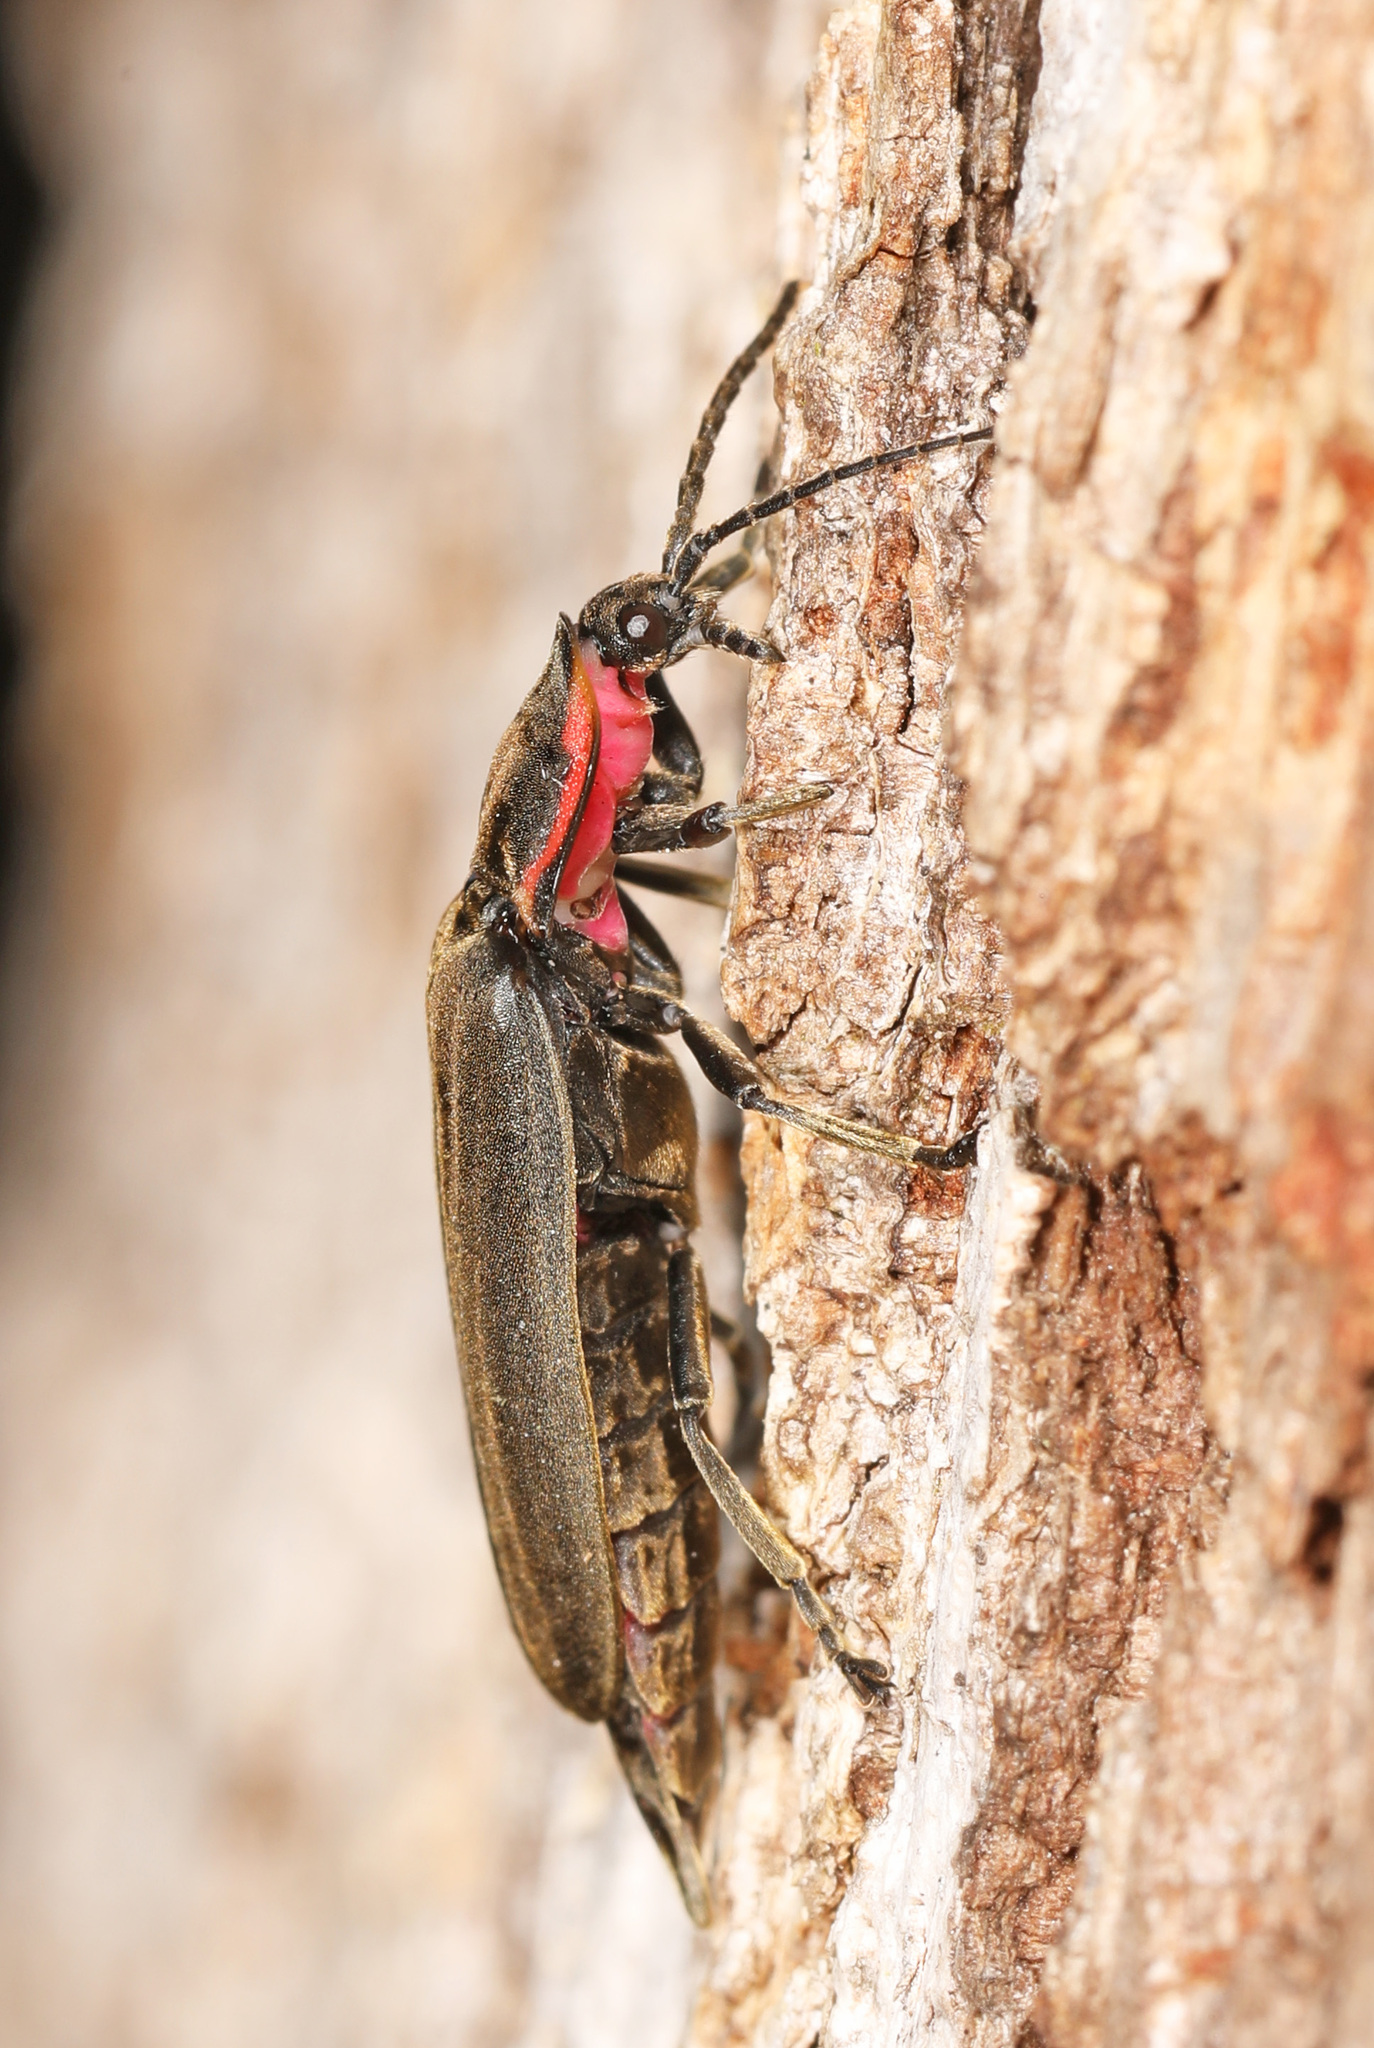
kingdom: Animalia
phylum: Arthropoda
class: Insecta
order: Coleoptera
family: Lampyridae
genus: Photinus
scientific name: Photinus corrusca
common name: Winter firefly
